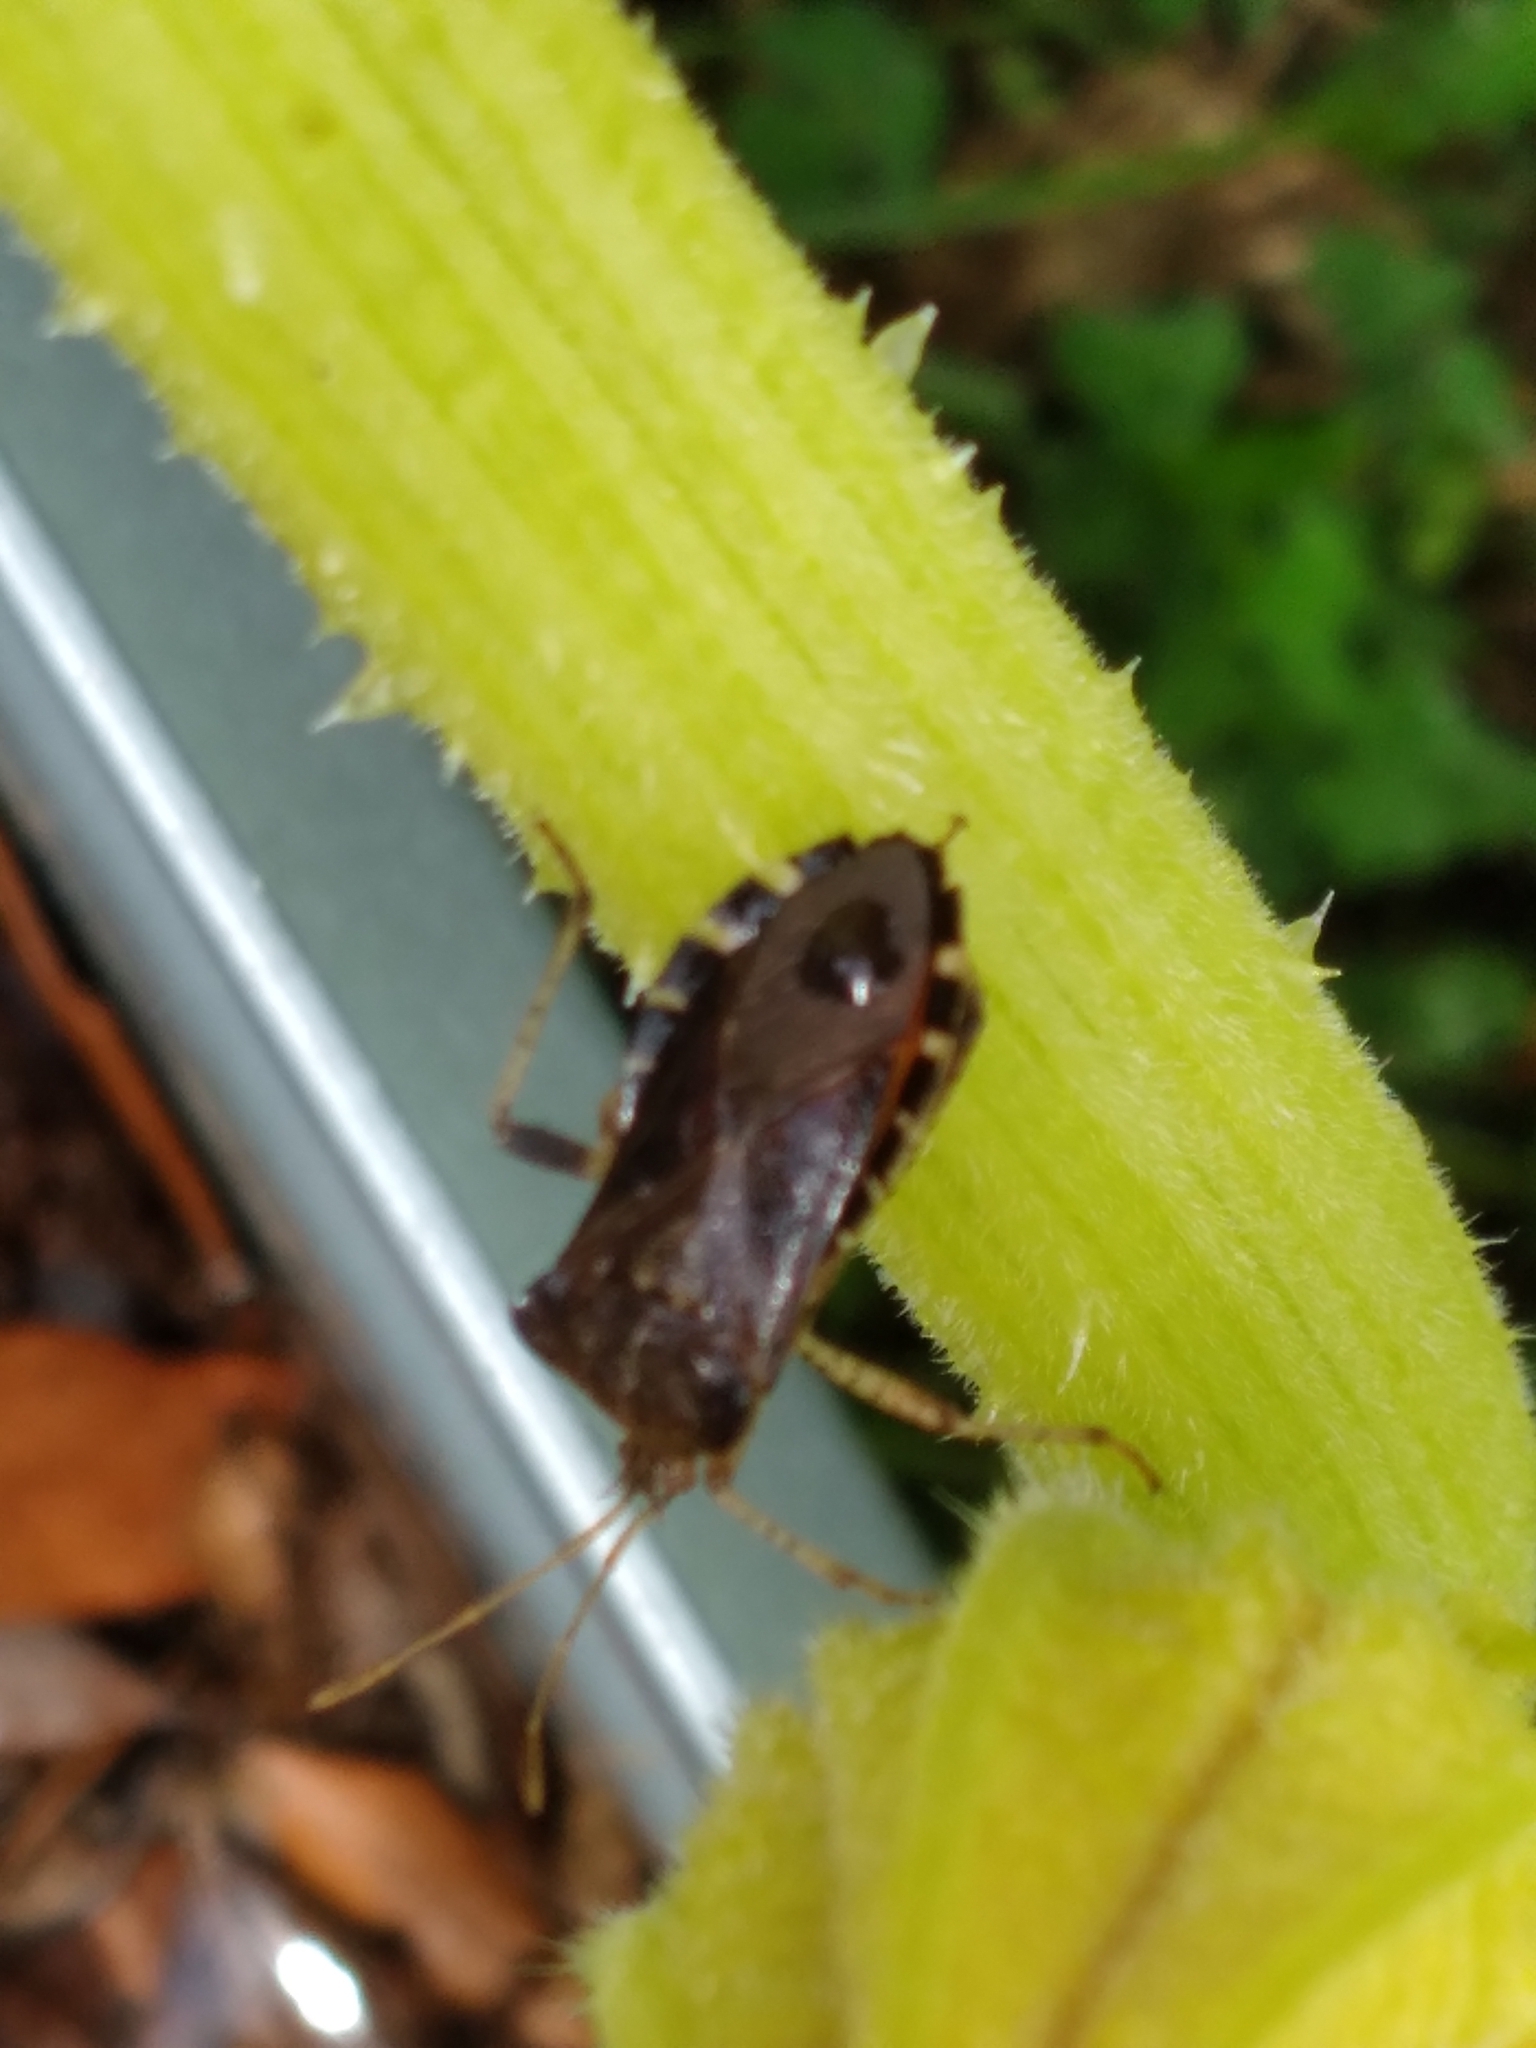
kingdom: Animalia
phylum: Arthropoda
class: Insecta
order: Hemiptera
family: Coreidae
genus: Anasa
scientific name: Anasa scorbutica
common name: Squash bug
